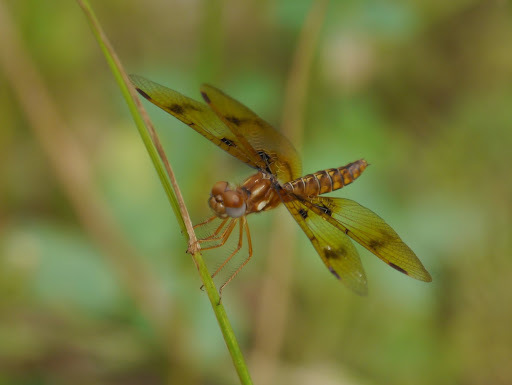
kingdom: Animalia
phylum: Arthropoda
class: Insecta
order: Odonata
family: Libellulidae
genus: Perithemis
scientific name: Perithemis tenera
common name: Eastern amberwing
